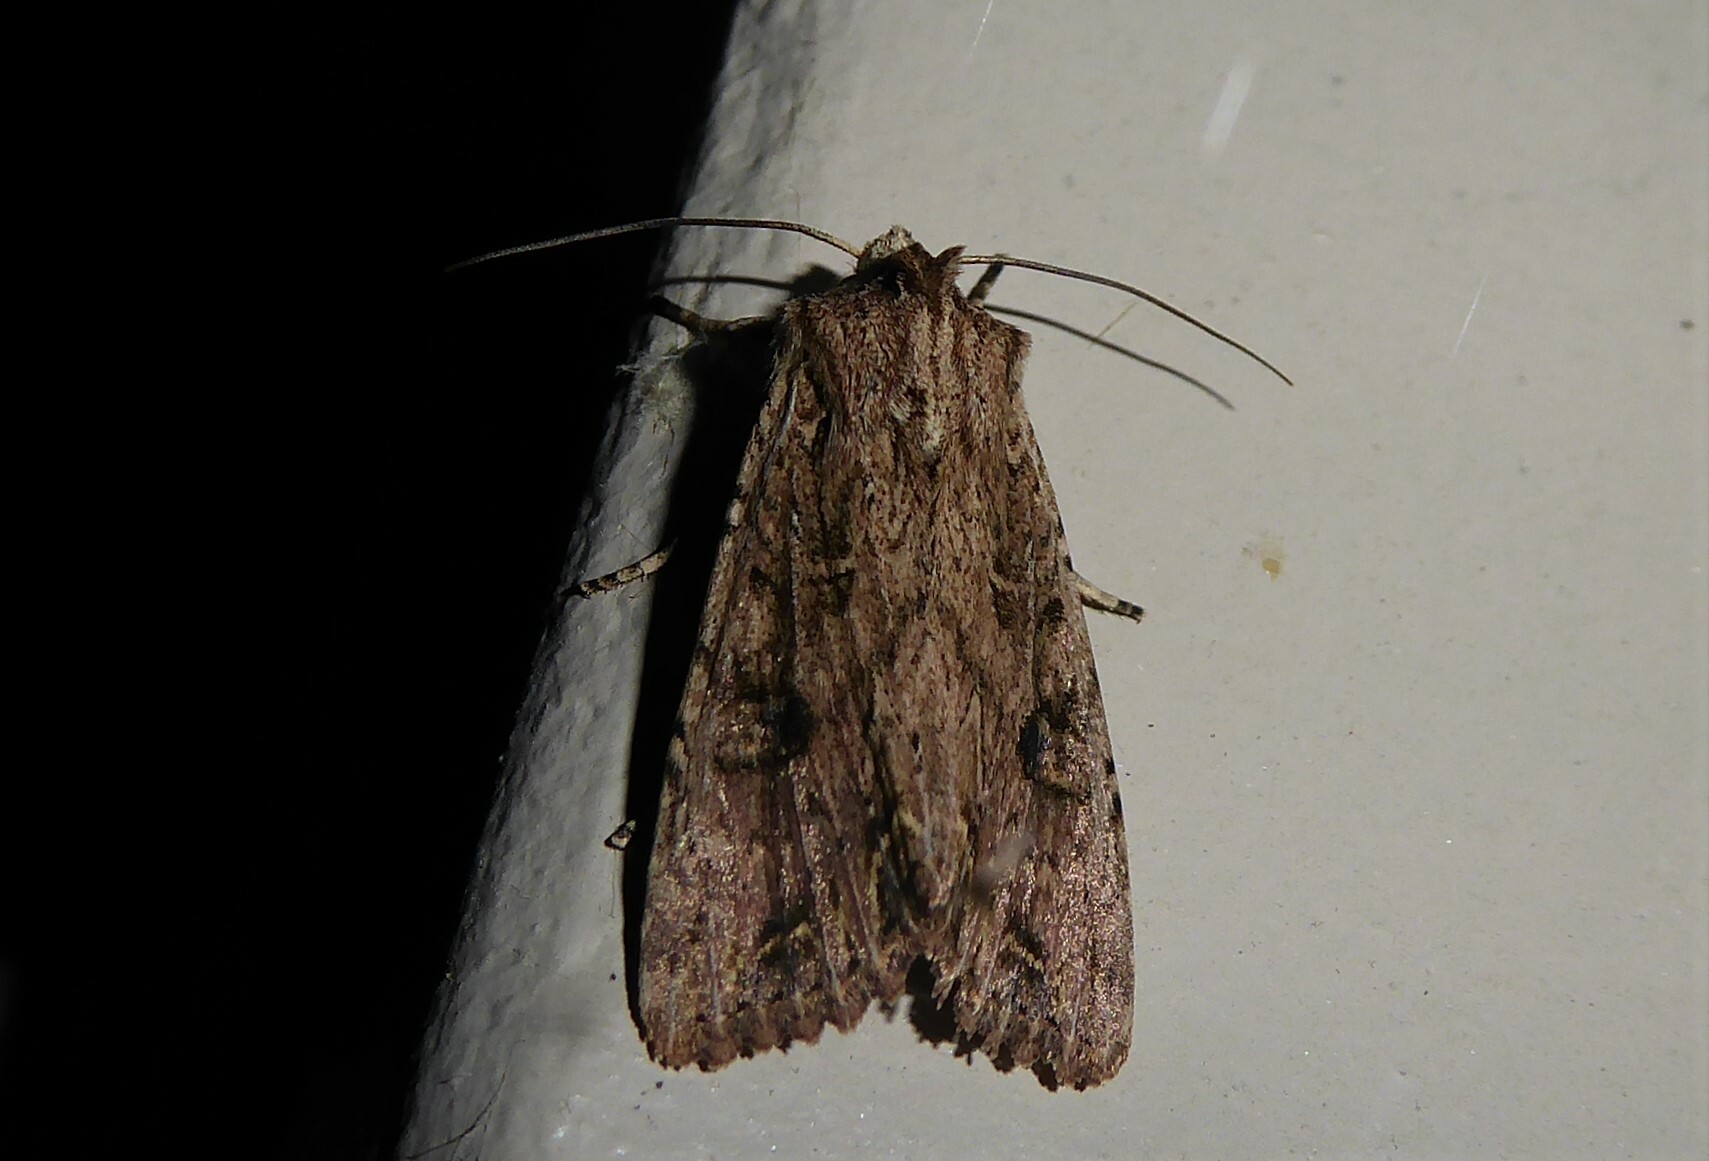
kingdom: Animalia
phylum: Arthropoda
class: Insecta
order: Lepidoptera
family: Noctuidae
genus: Ichneutica
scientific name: Ichneutica lignana
